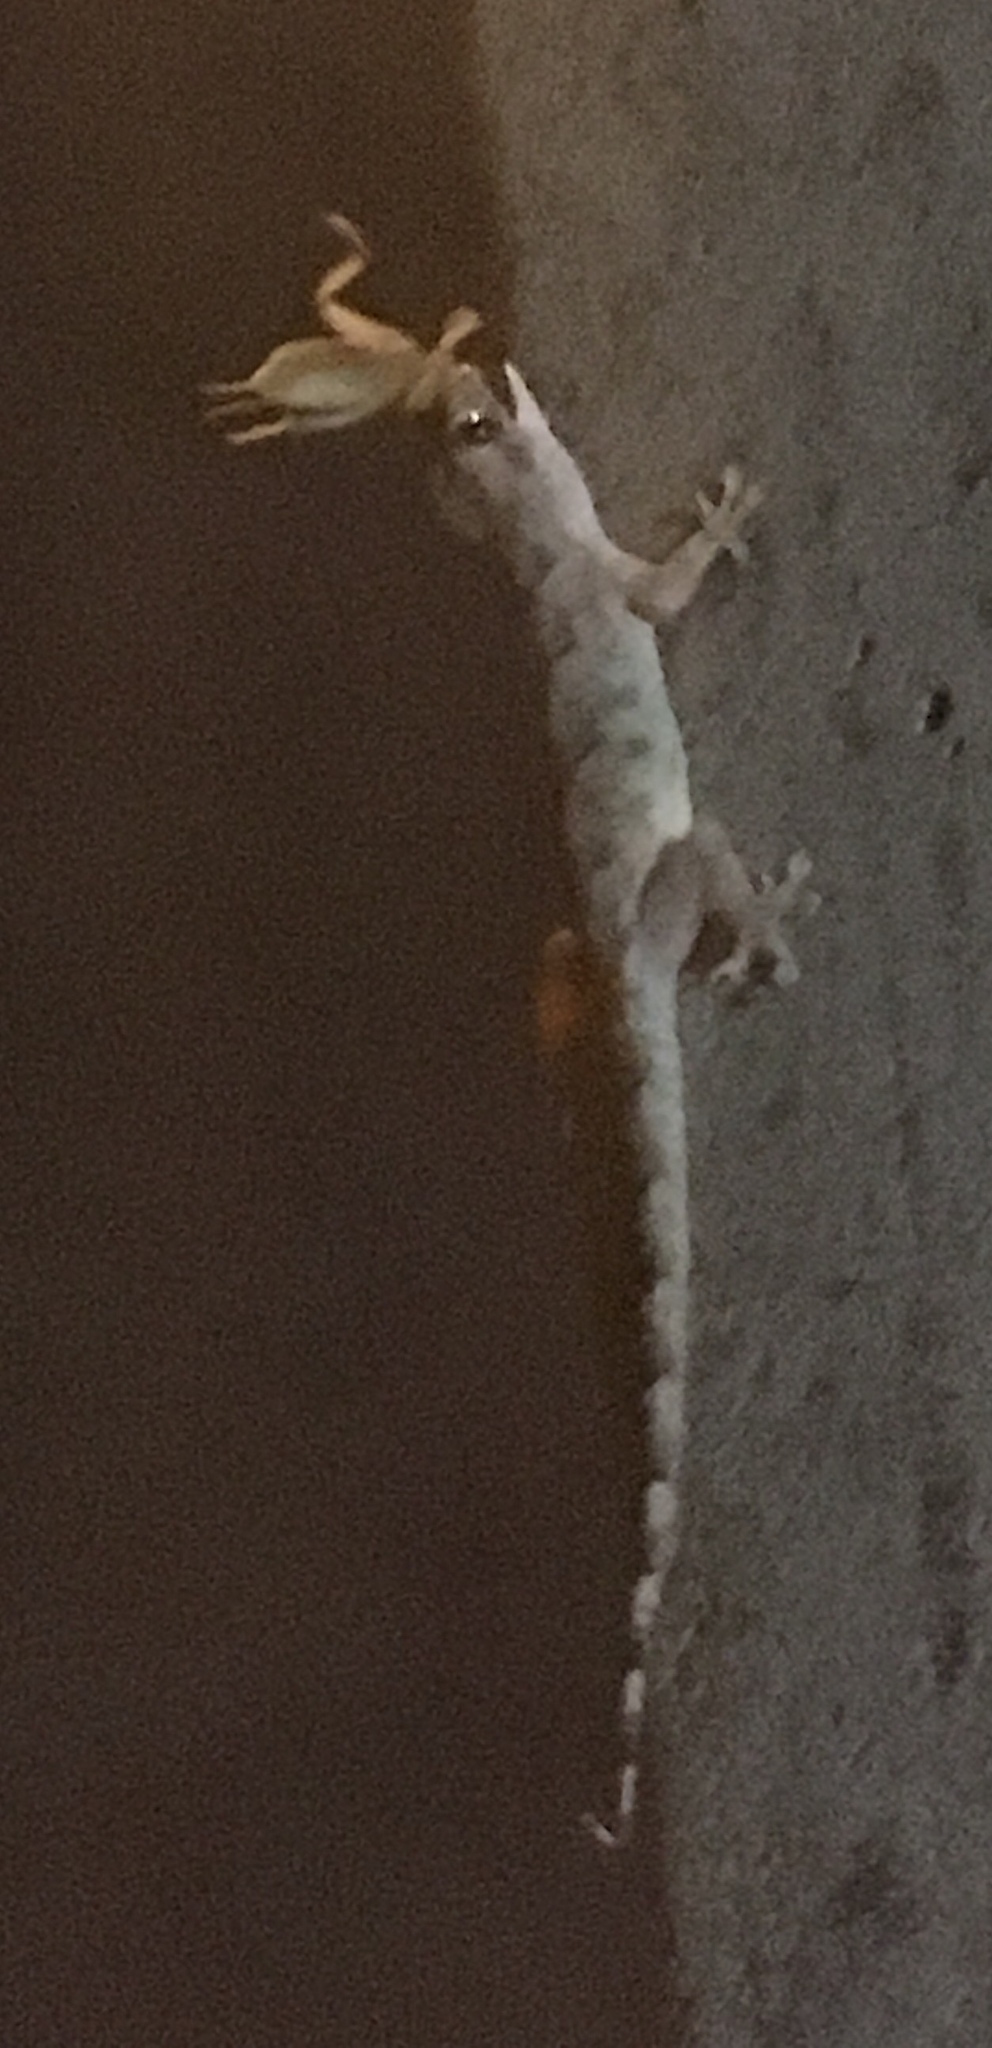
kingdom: Animalia
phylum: Chordata
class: Squamata
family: Gekkonidae
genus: Hemidactylus
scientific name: Hemidactylus mabouia
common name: House gecko
